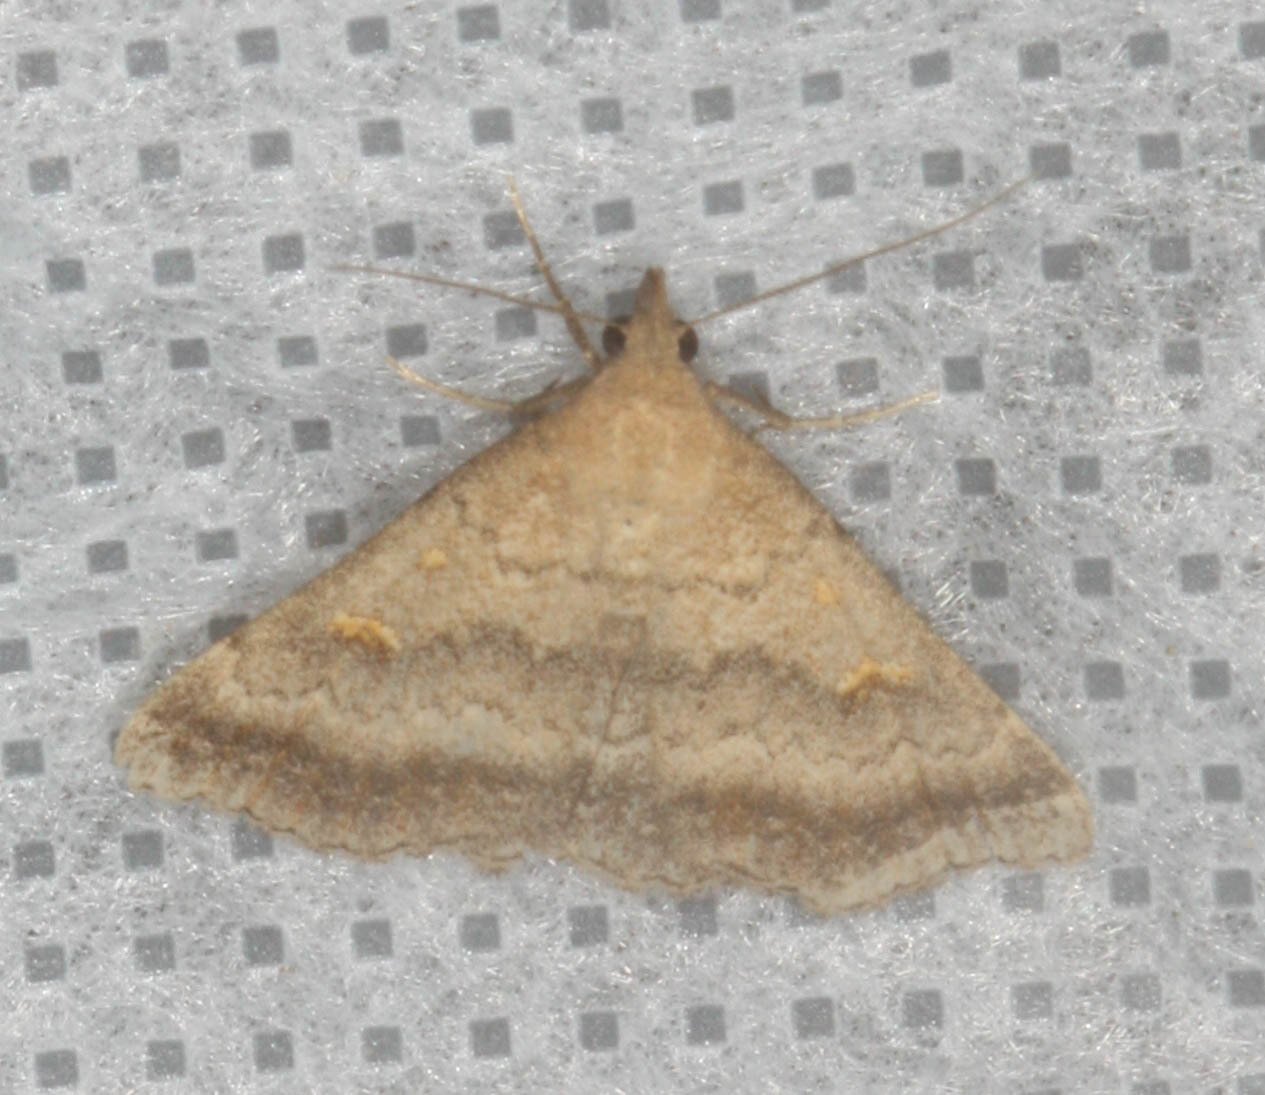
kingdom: Animalia
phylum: Arthropoda
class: Insecta
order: Lepidoptera
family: Erebidae
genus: Tetanolita
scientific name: Tetanolita palligera
